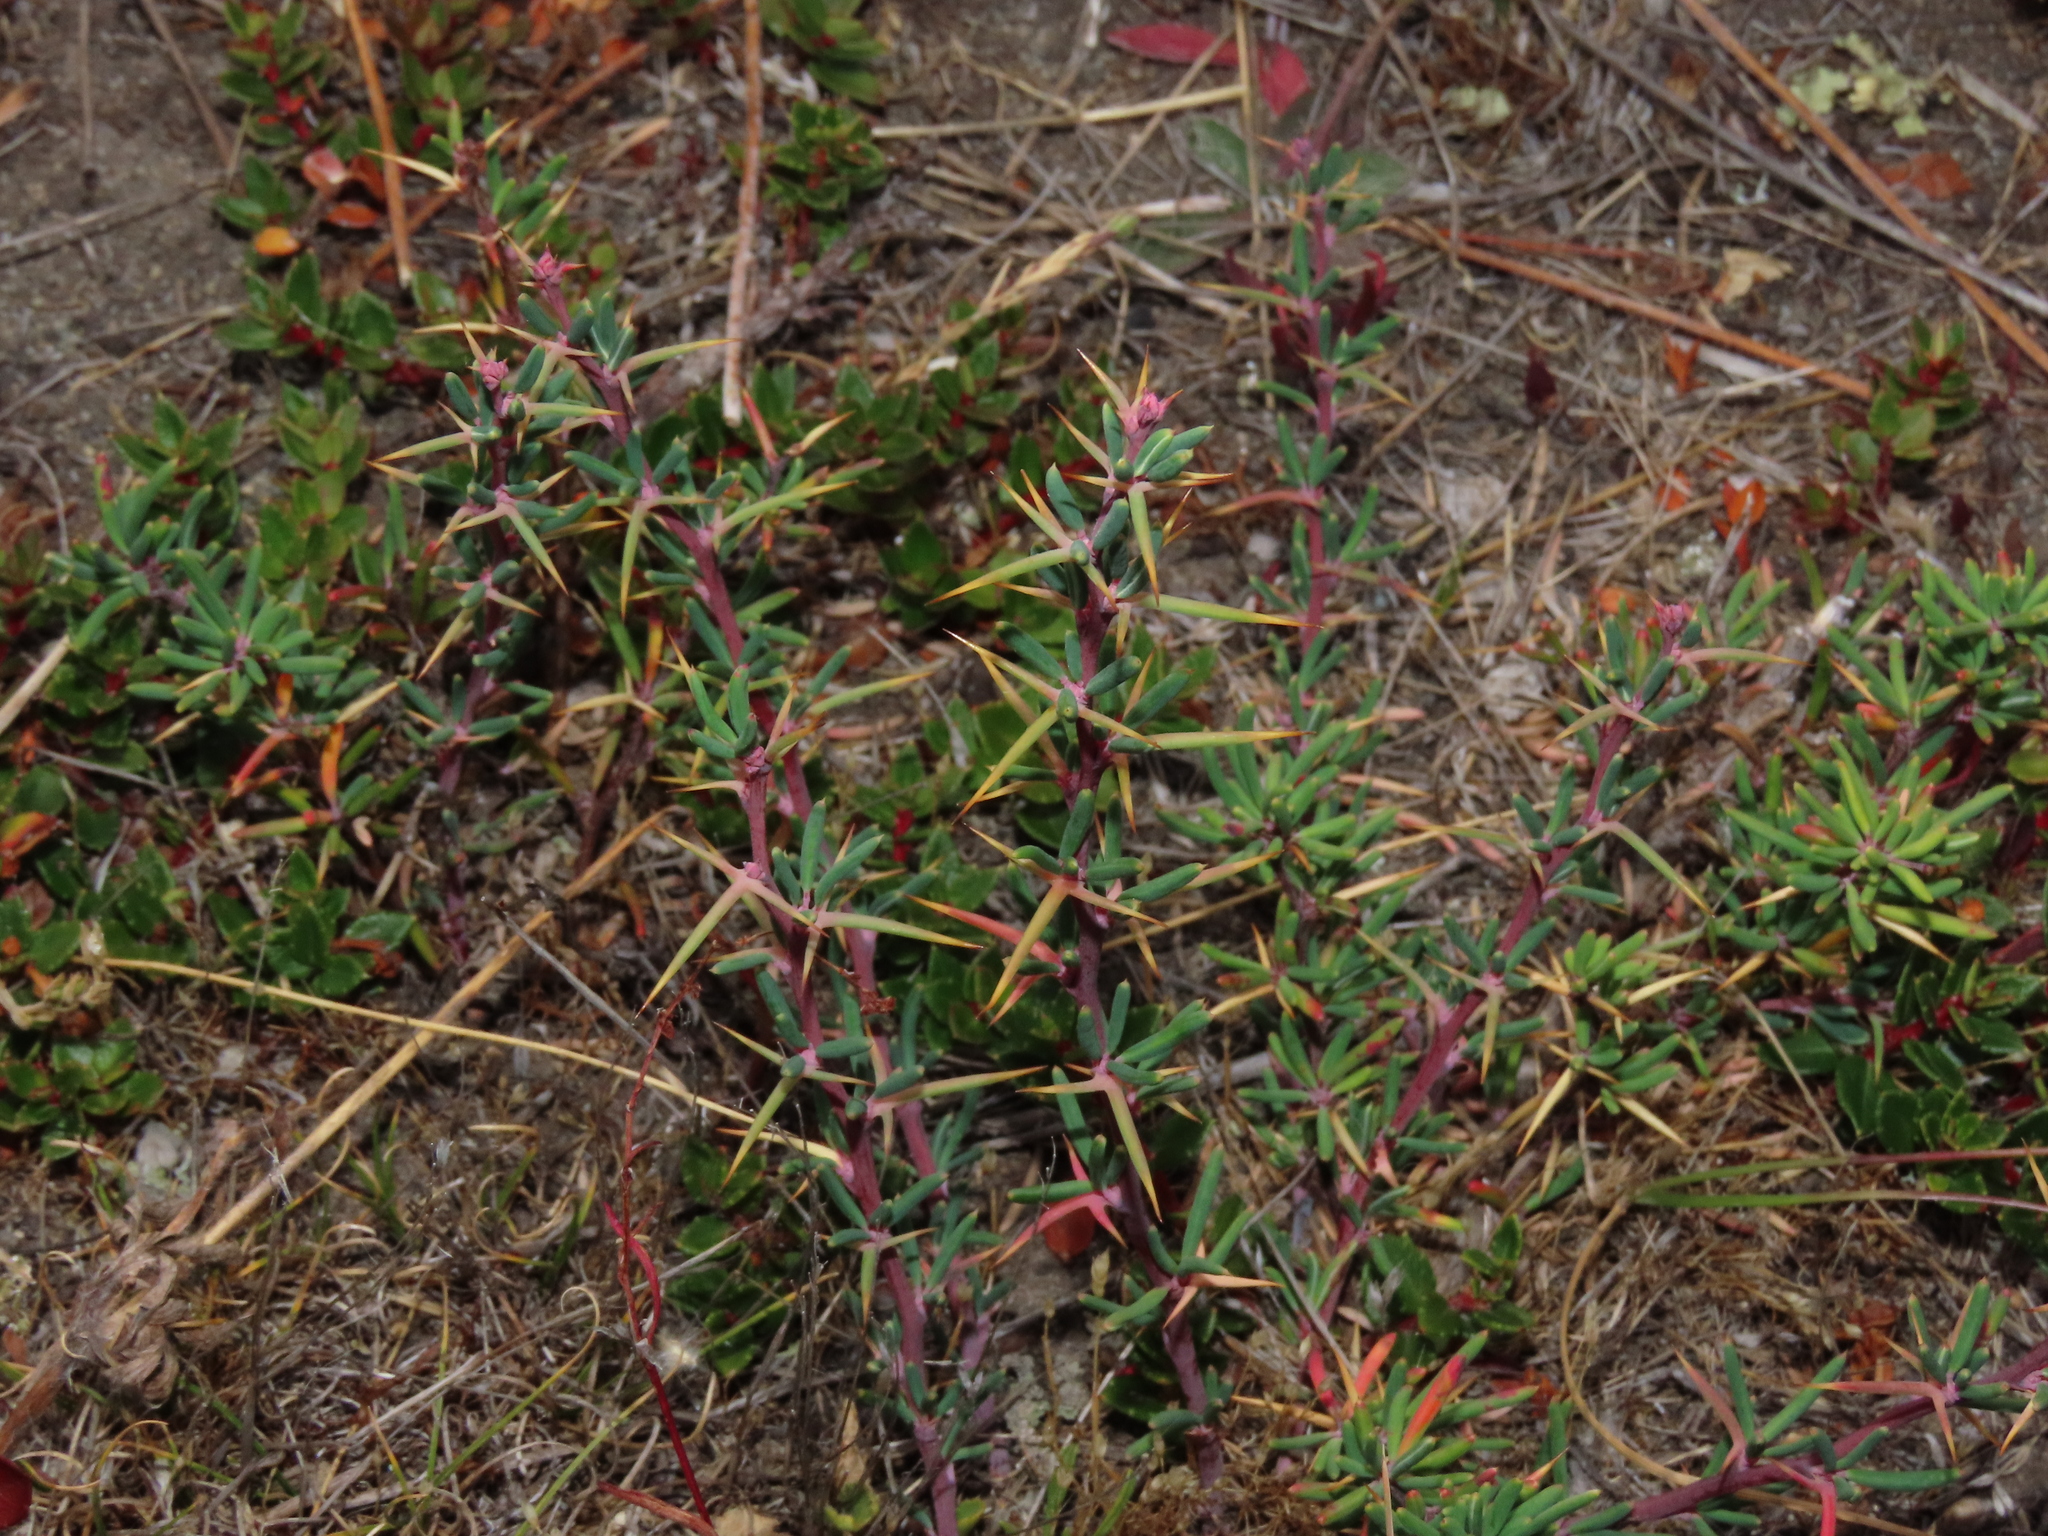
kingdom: Plantae
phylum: Tracheophyta
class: Magnoliopsida
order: Ranunculales
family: Berberidaceae
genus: Berberis
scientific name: Berberis empetrifolia
